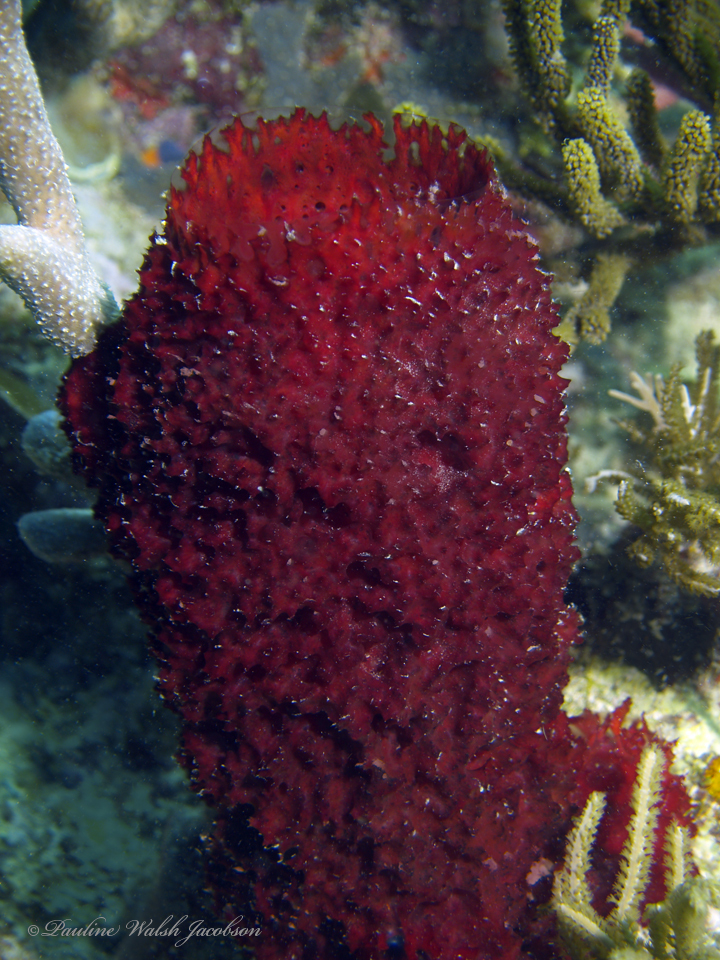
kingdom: Animalia
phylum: Porifera
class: Demospongiae
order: Poecilosclerida
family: Mycalidae
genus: Mycale
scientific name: Mycale laxissima
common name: Strawberry vase sponge
